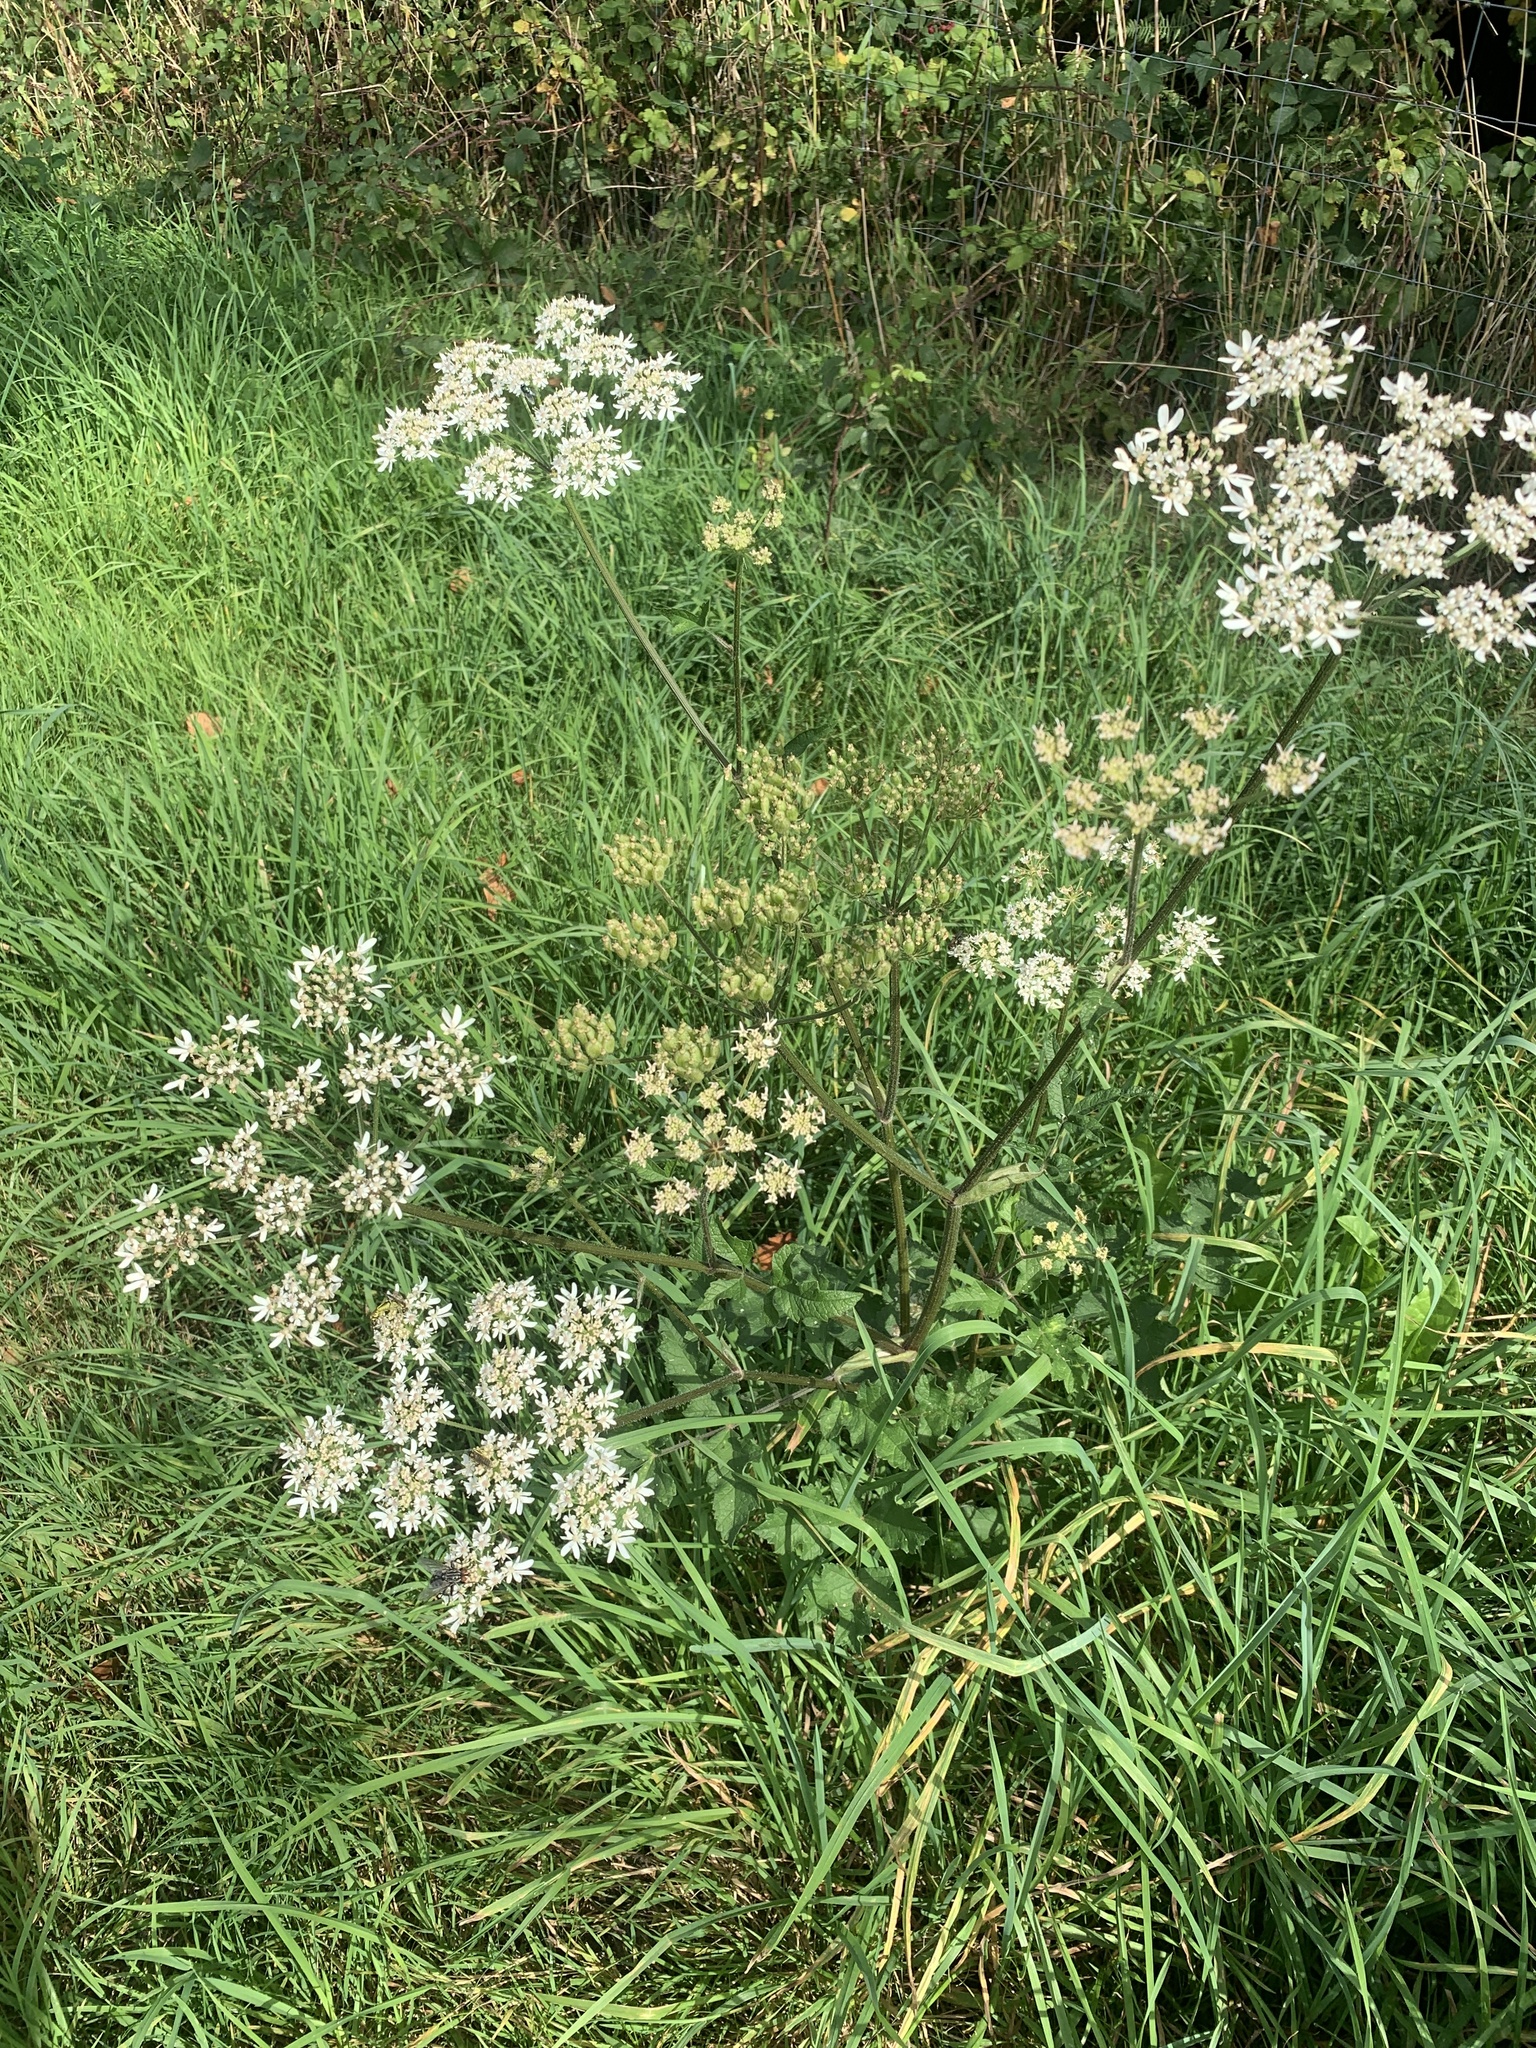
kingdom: Plantae
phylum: Tracheophyta
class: Magnoliopsida
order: Apiales
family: Apiaceae
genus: Heracleum
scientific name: Heracleum sphondylium
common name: Hogweed
